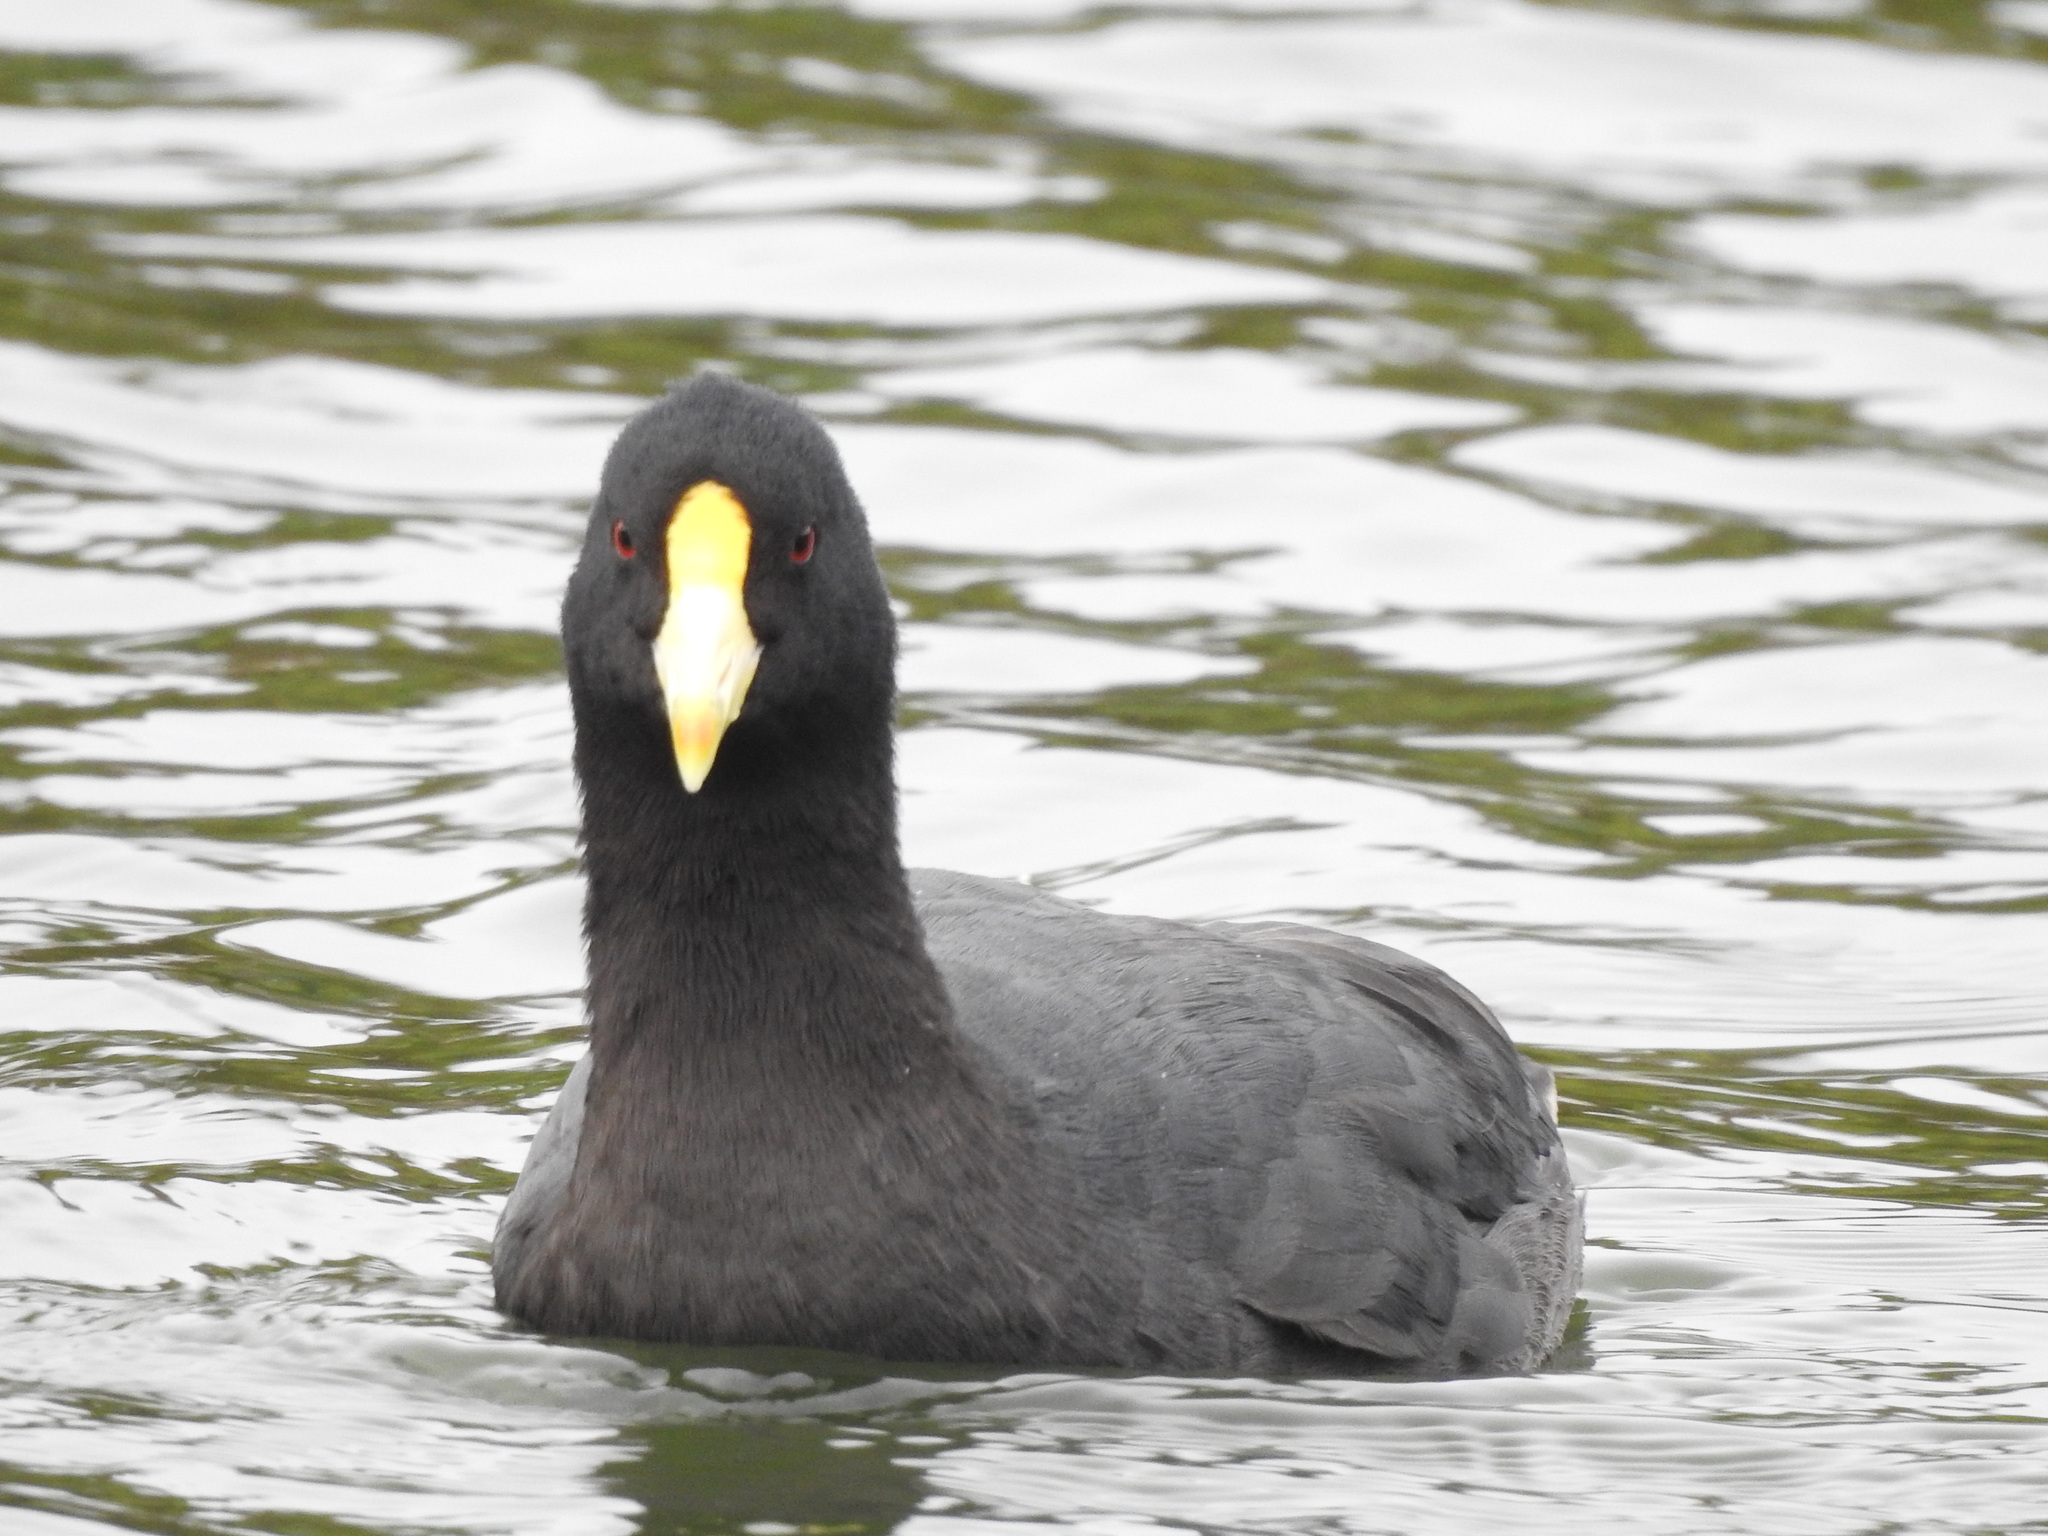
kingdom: Animalia
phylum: Chordata
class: Aves
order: Gruiformes
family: Rallidae
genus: Fulica
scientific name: Fulica leucoptera
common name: White-winged coot
